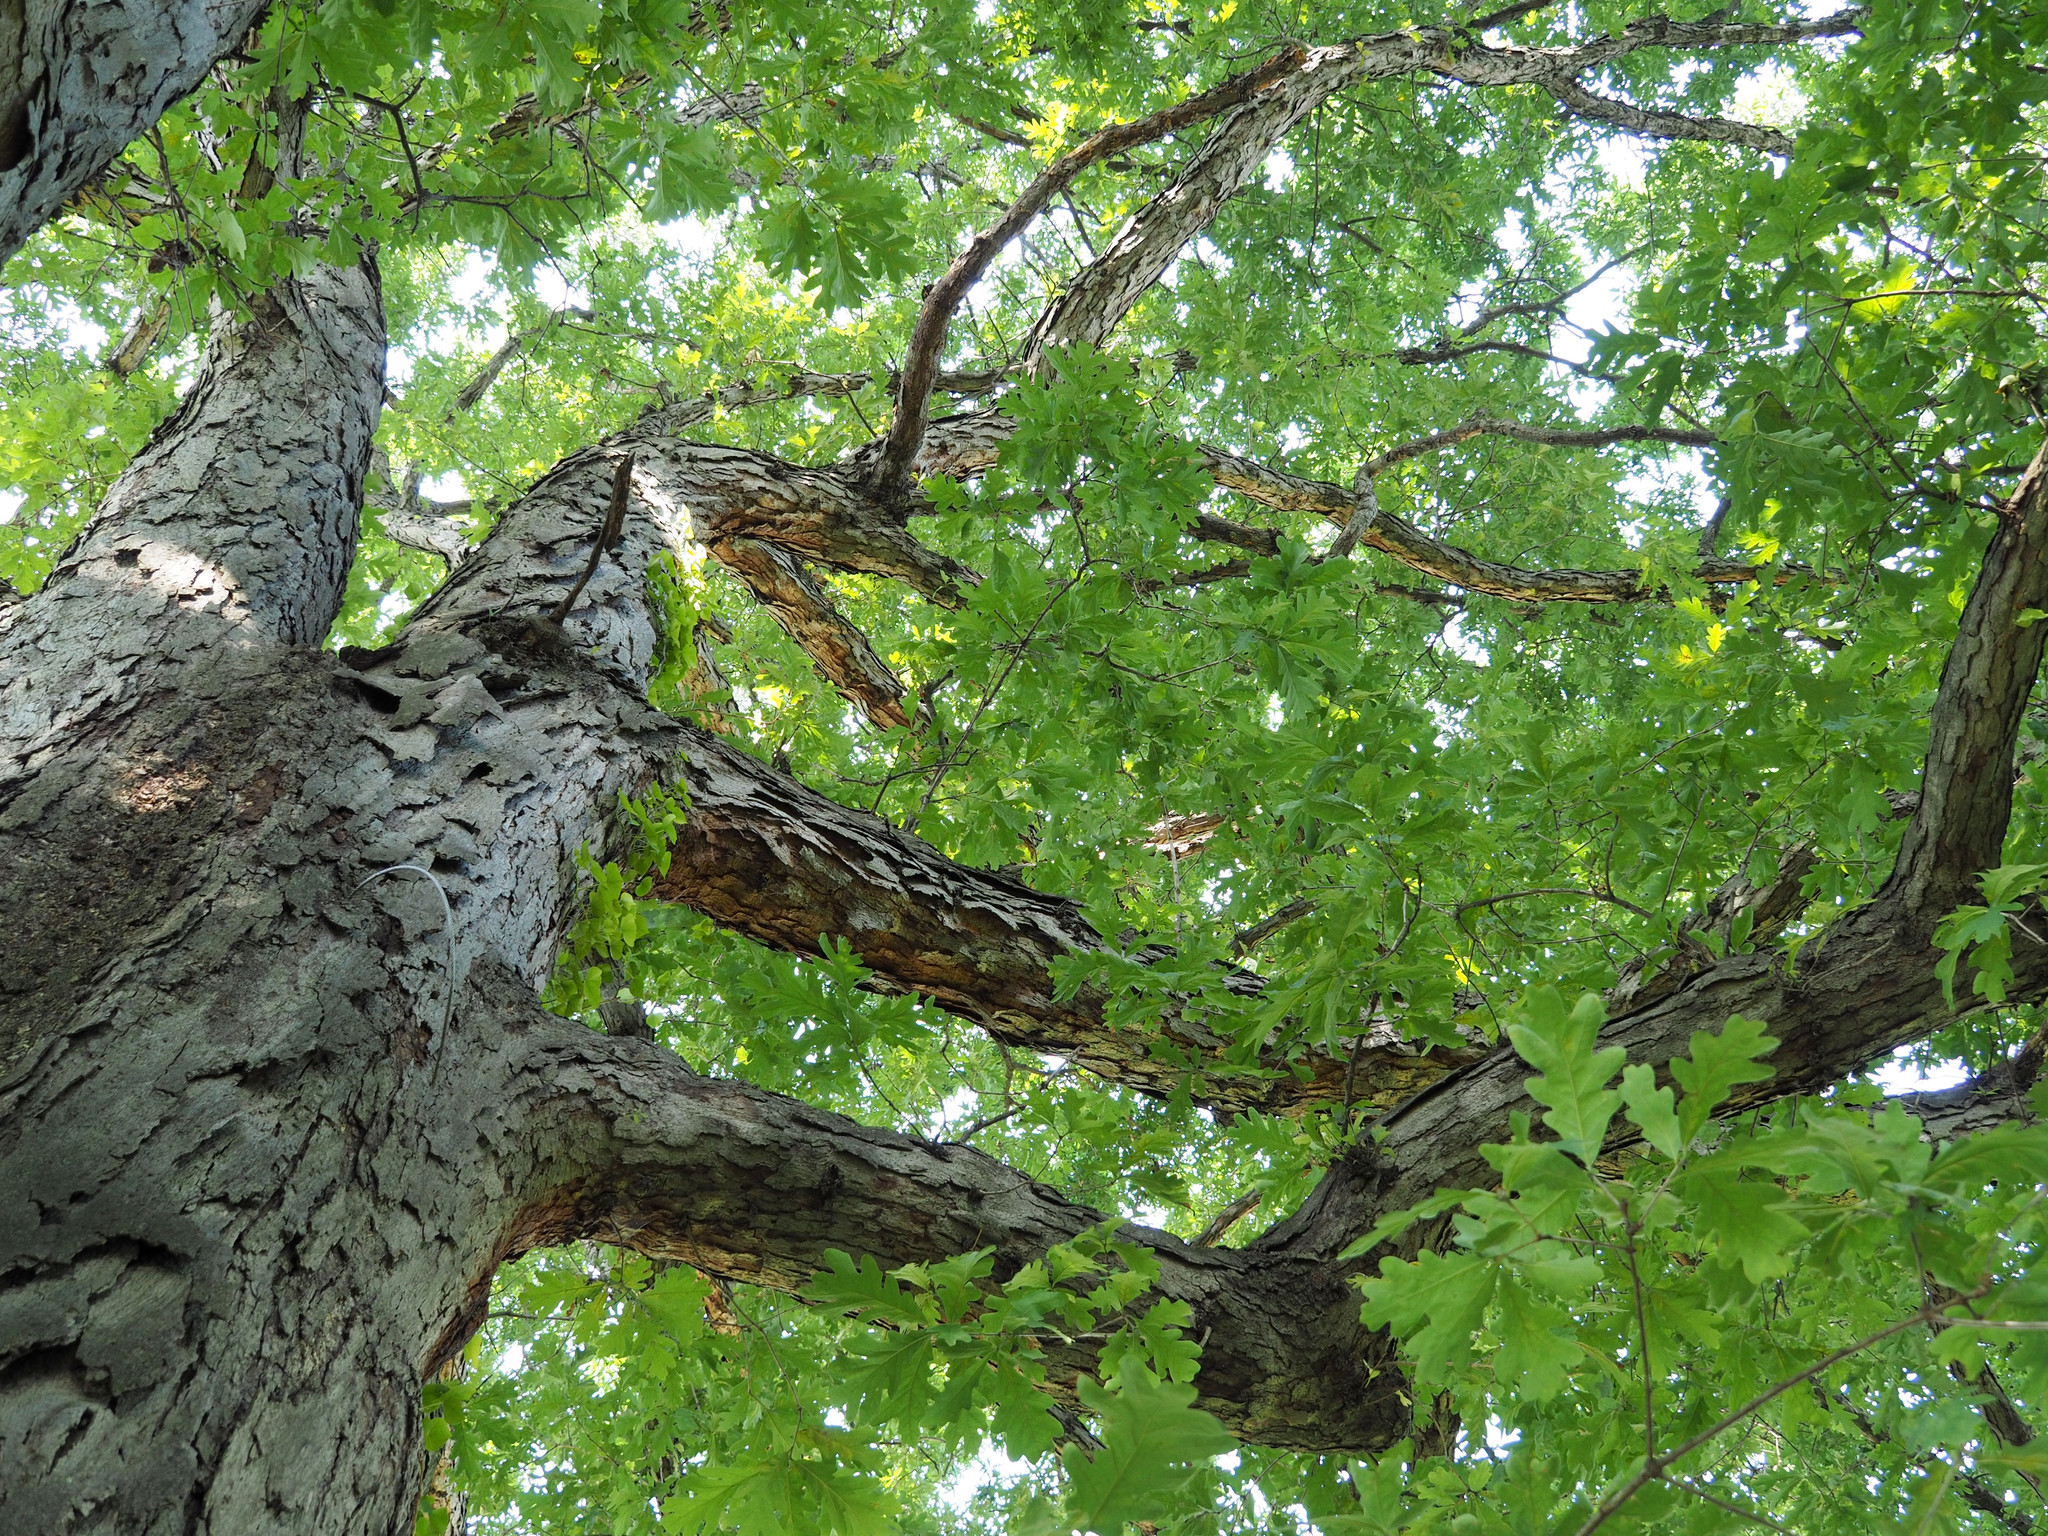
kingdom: Plantae
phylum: Tracheophyta
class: Magnoliopsida
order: Fagales
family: Fagaceae
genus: Quercus
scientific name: Quercus alba
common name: White oak
